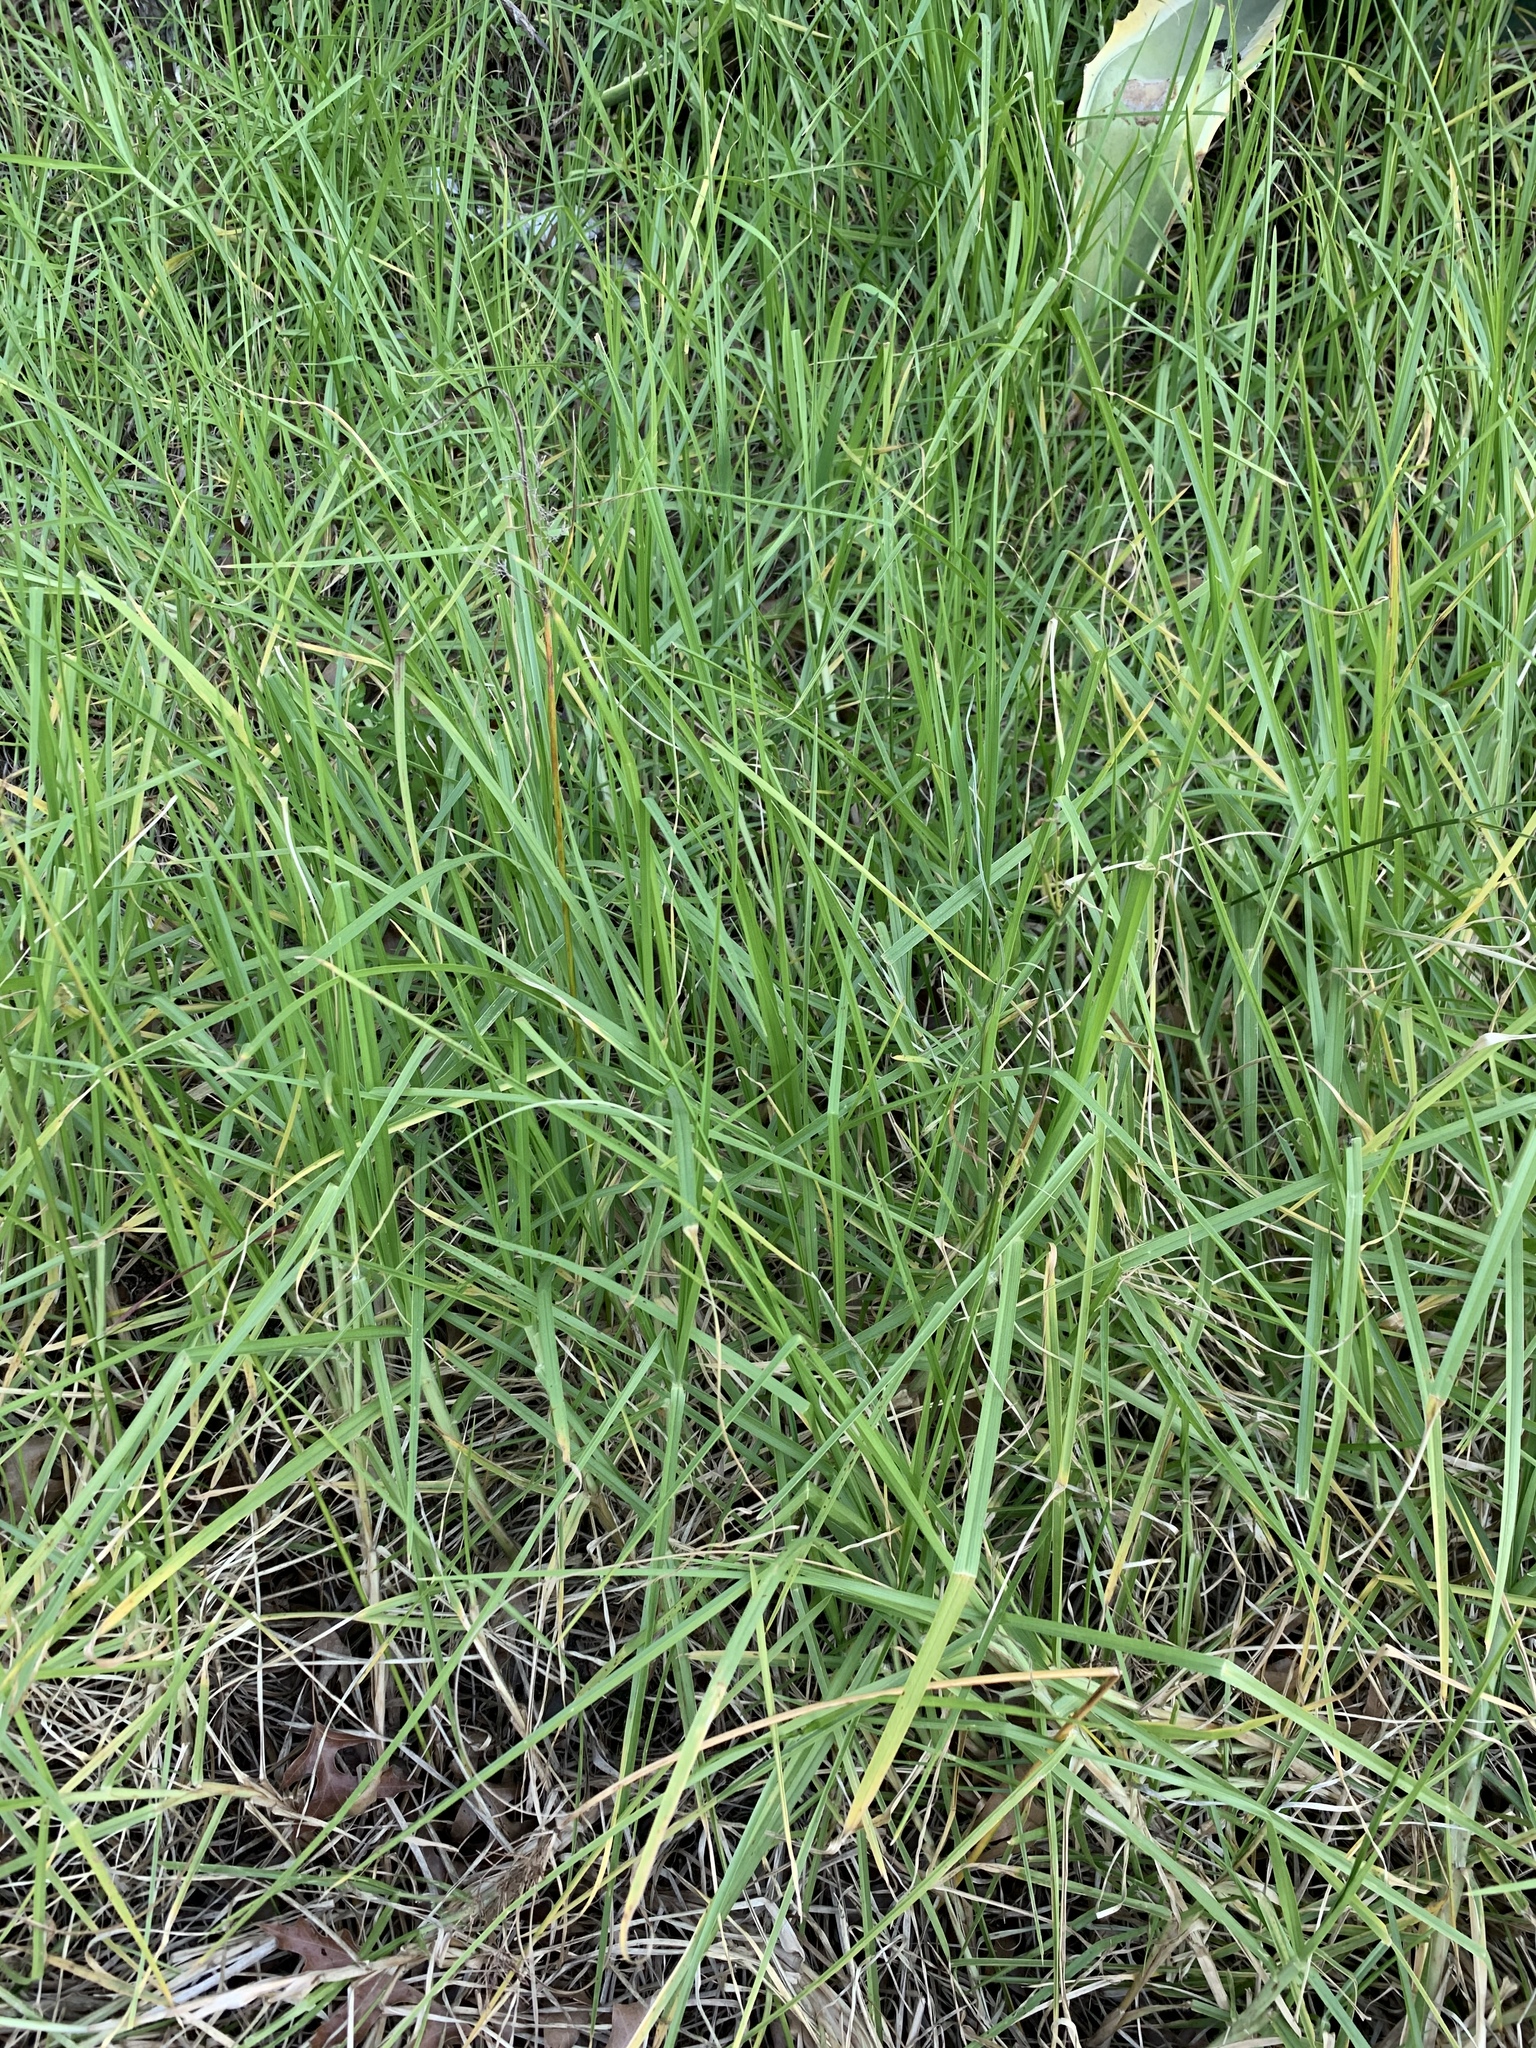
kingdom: Plantae
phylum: Tracheophyta
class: Liliopsida
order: Poales
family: Poaceae
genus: Cenchrus
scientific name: Cenchrus clandestinus
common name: Kikuyugrass
